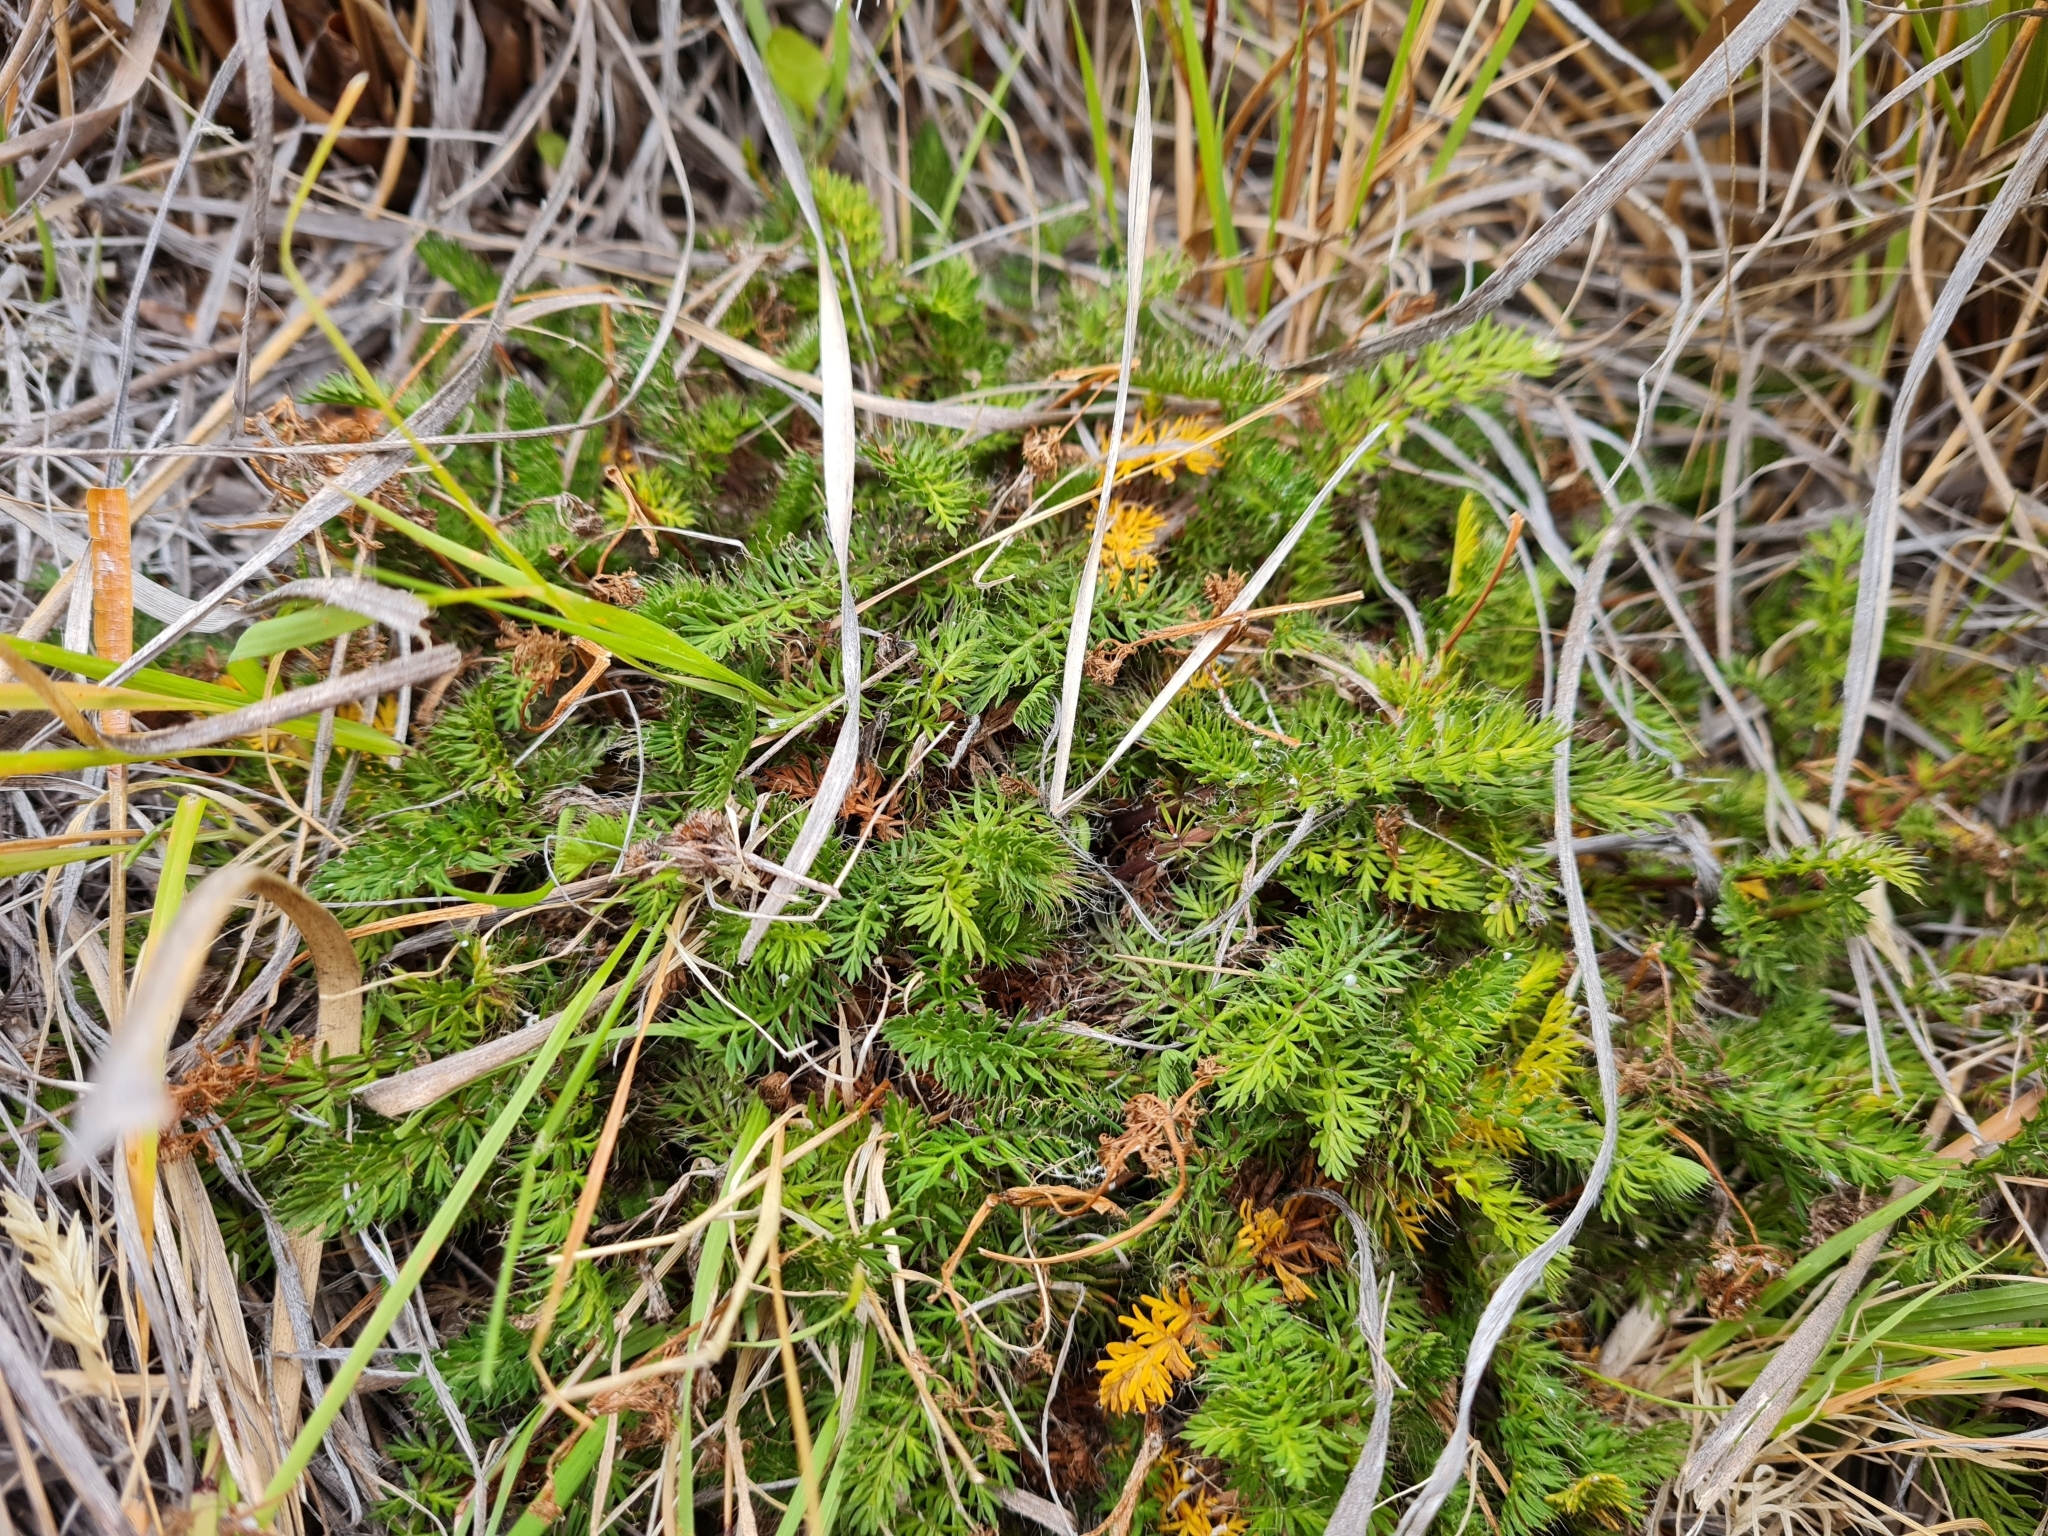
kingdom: Plantae
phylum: Tracheophyta
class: Magnoliopsida
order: Apiales
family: Apiaceae
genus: Anisotome
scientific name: Anisotome flexuosa
